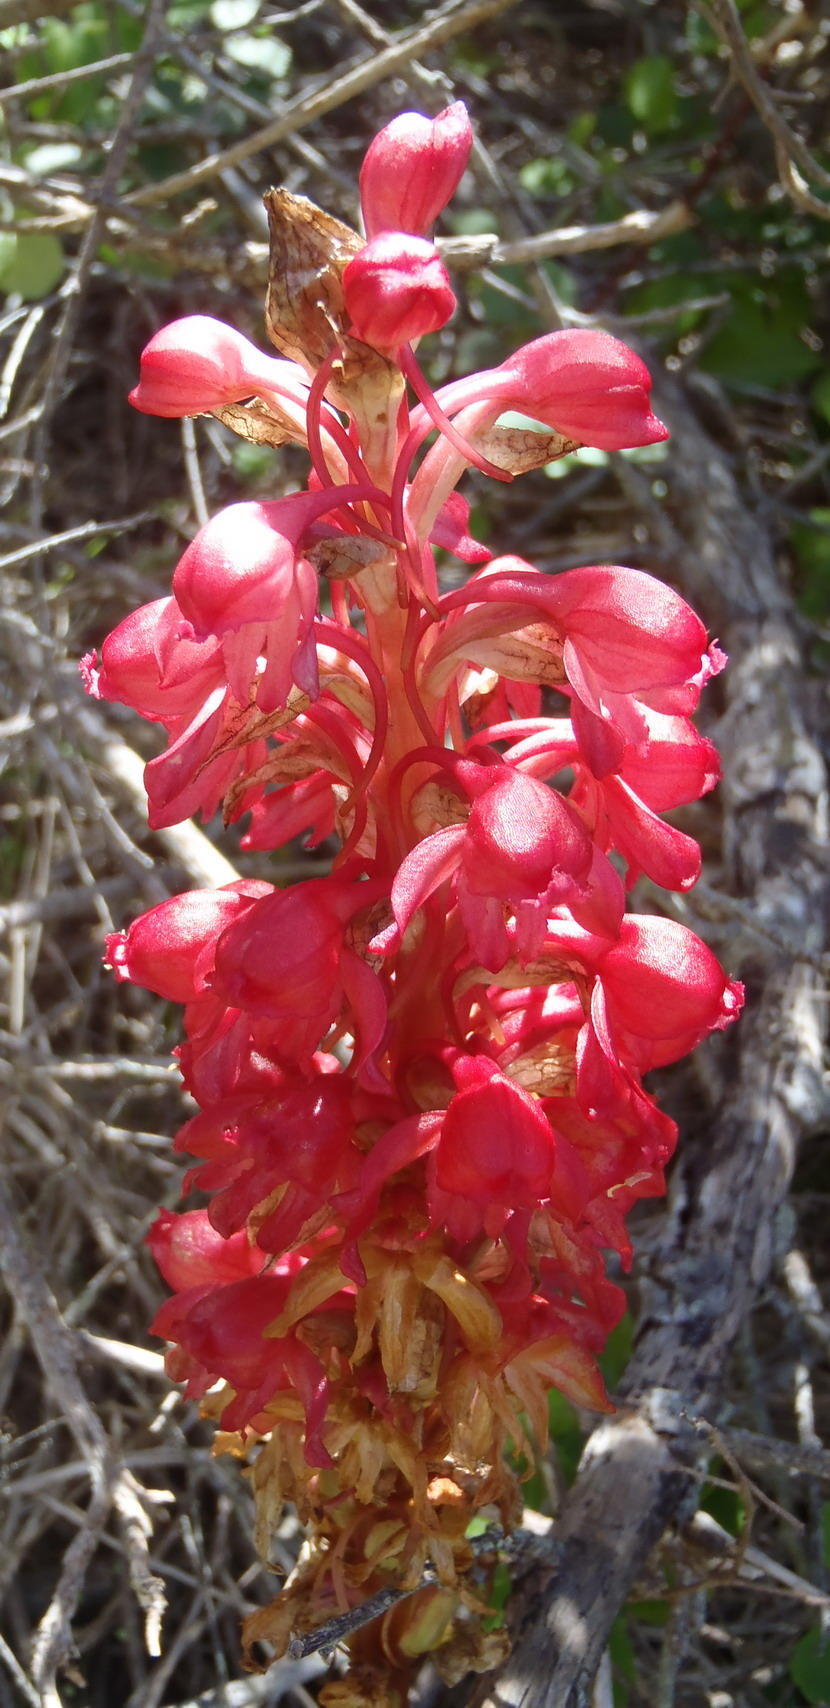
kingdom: Plantae
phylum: Tracheophyta
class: Liliopsida
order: Asparagales
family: Orchidaceae
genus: Satyrium
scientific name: Satyrium princeps
